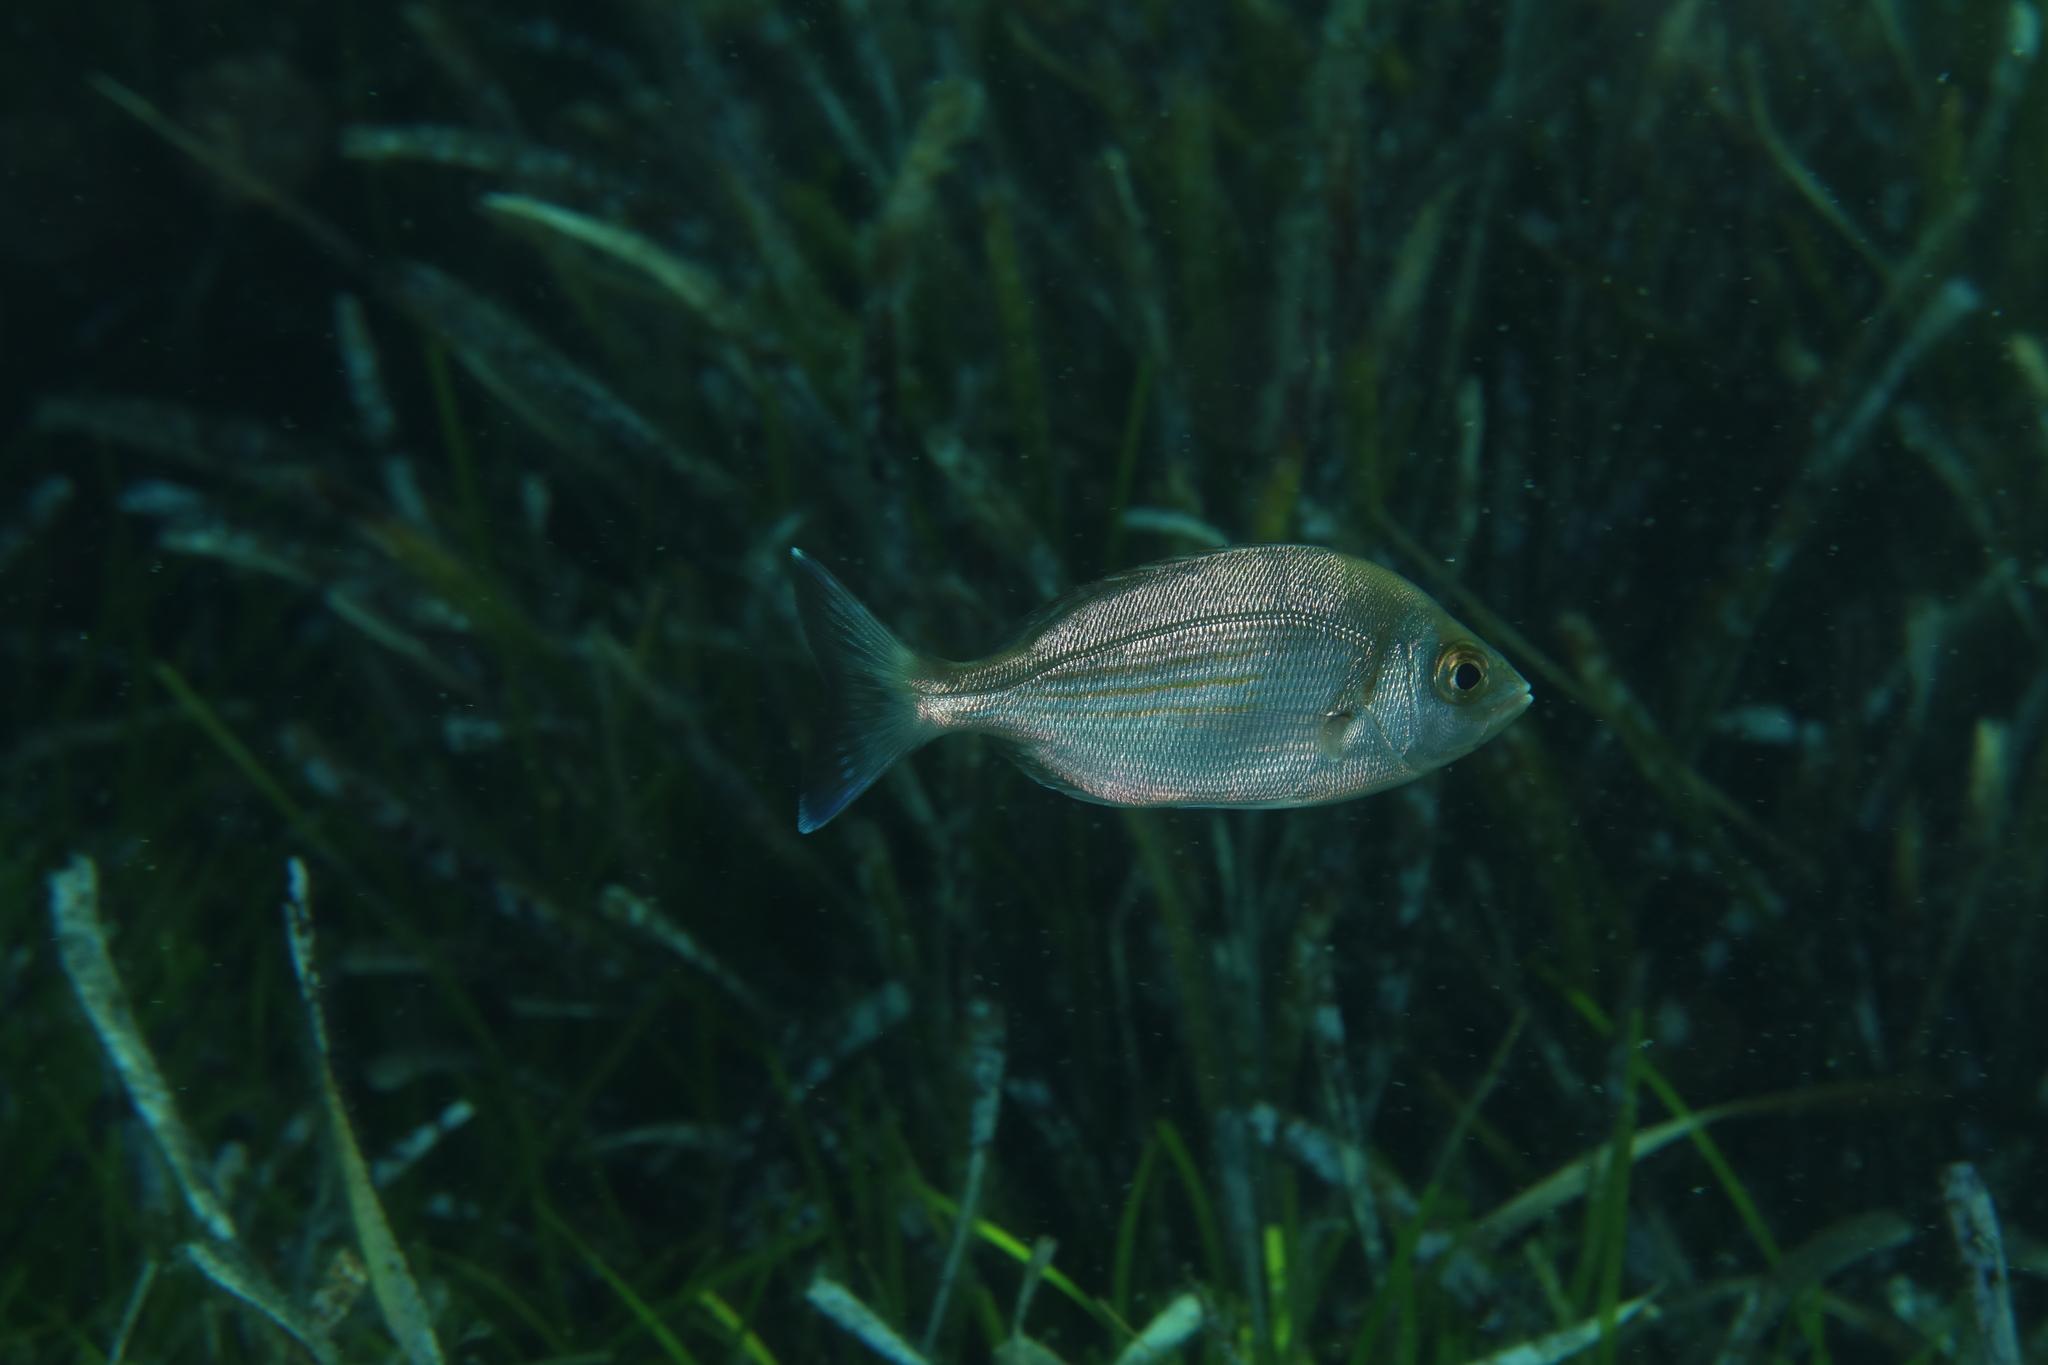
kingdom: Animalia
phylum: Chordata
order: Perciformes
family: Sparidae
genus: Spondyliosoma
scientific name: Spondyliosoma cantharus
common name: Black seabream
